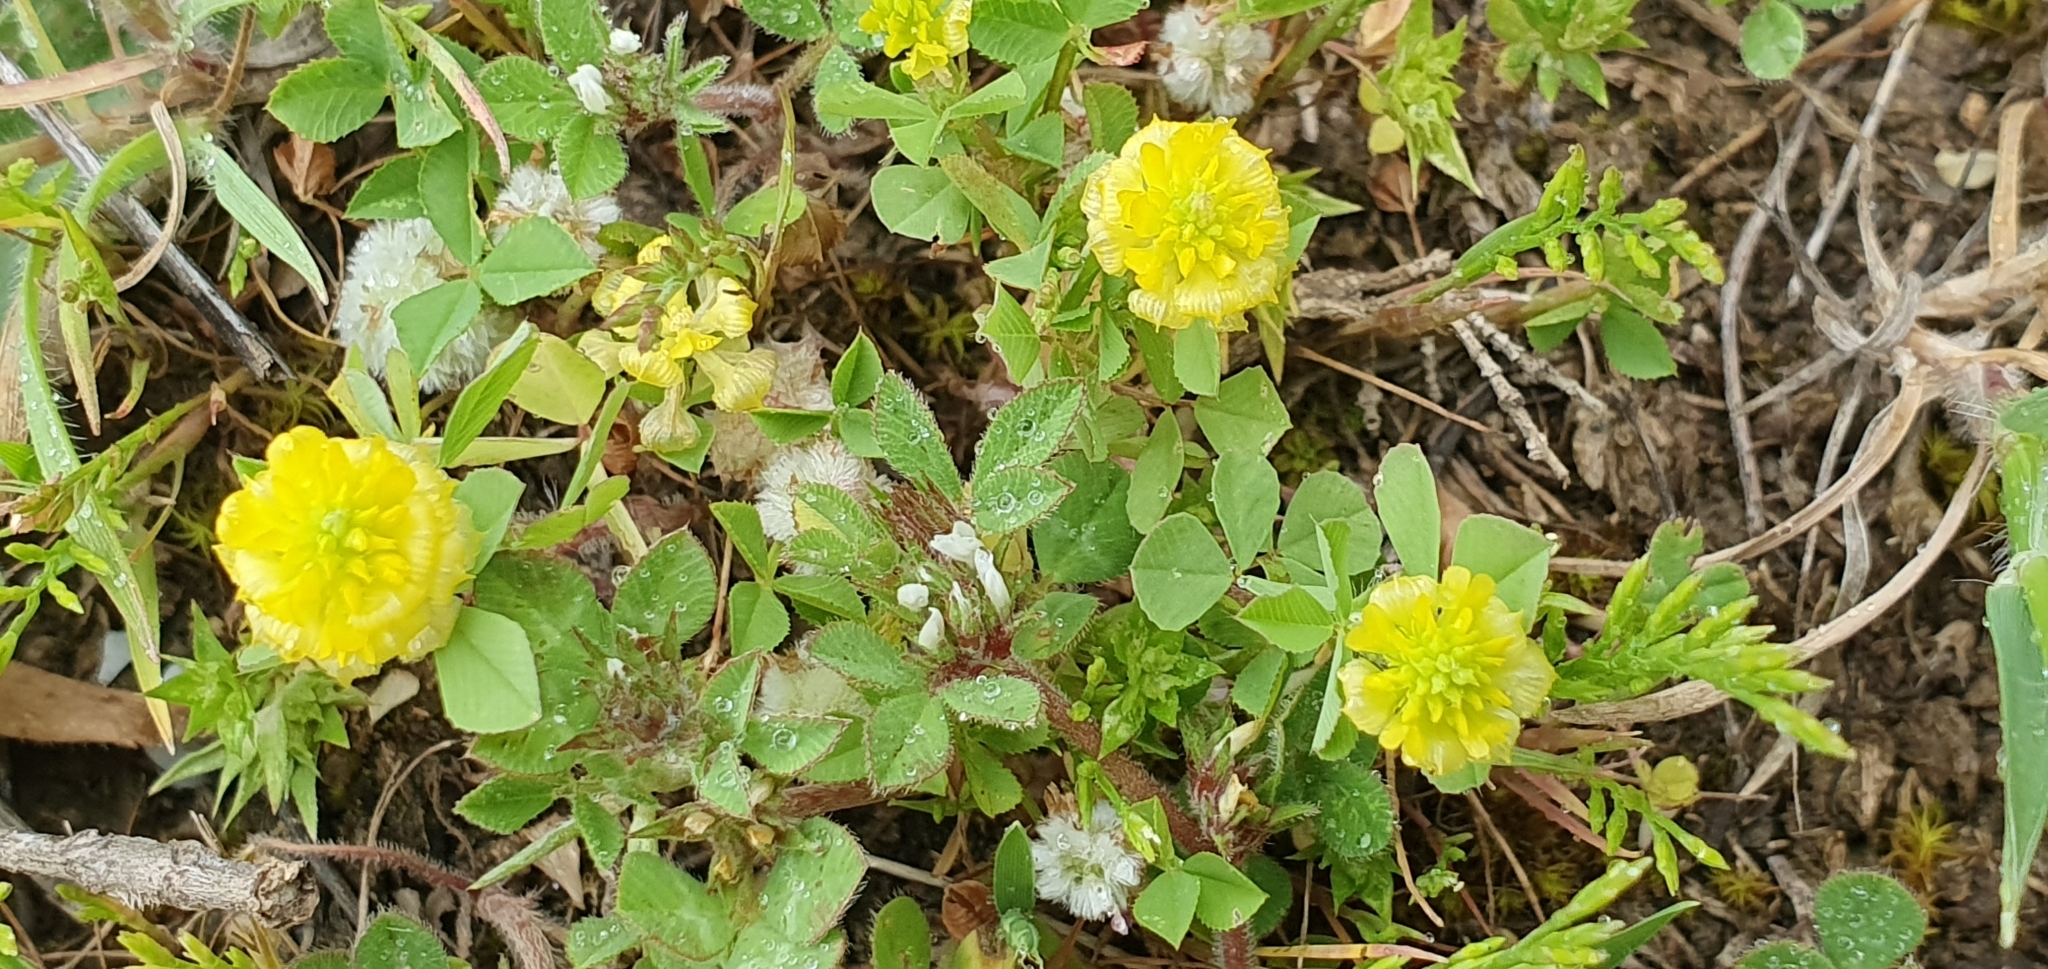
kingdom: Plantae
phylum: Tracheophyta
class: Magnoliopsida
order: Fabales
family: Fabaceae
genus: Trifolium
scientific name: Trifolium campestre
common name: Field clover
